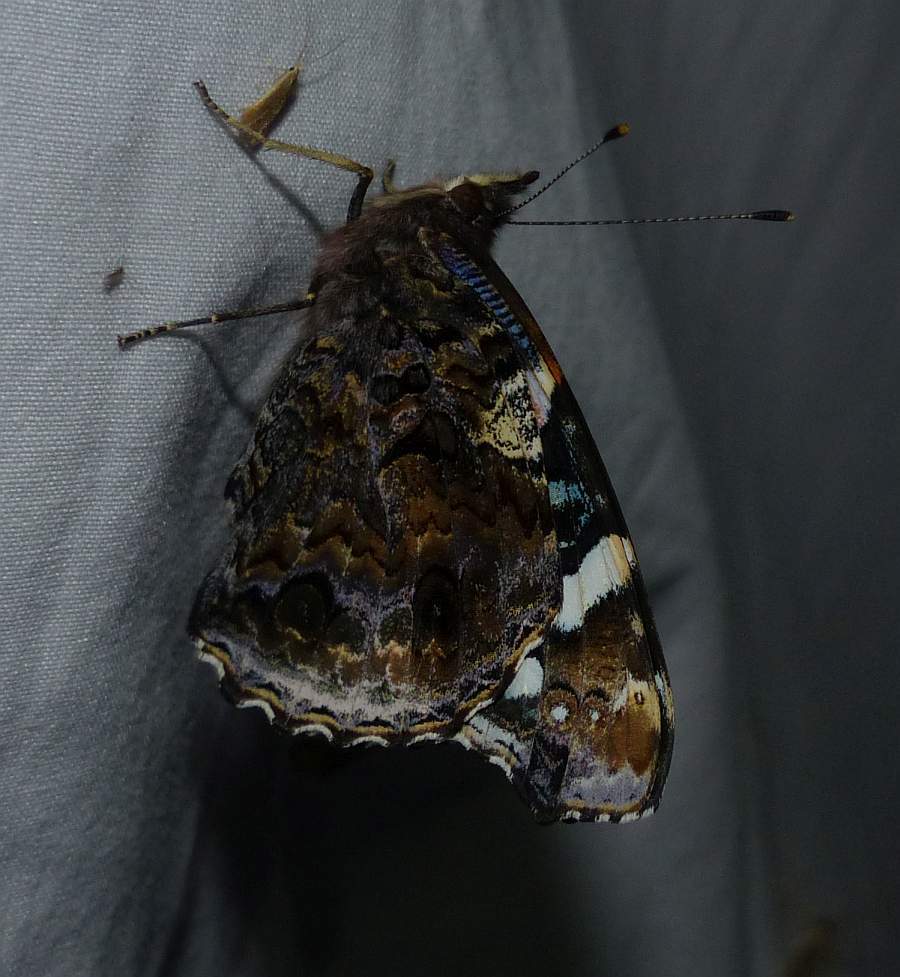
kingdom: Animalia
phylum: Arthropoda
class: Insecta
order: Lepidoptera
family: Nymphalidae
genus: Vanessa
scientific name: Vanessa atalanta
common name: Red admiral
